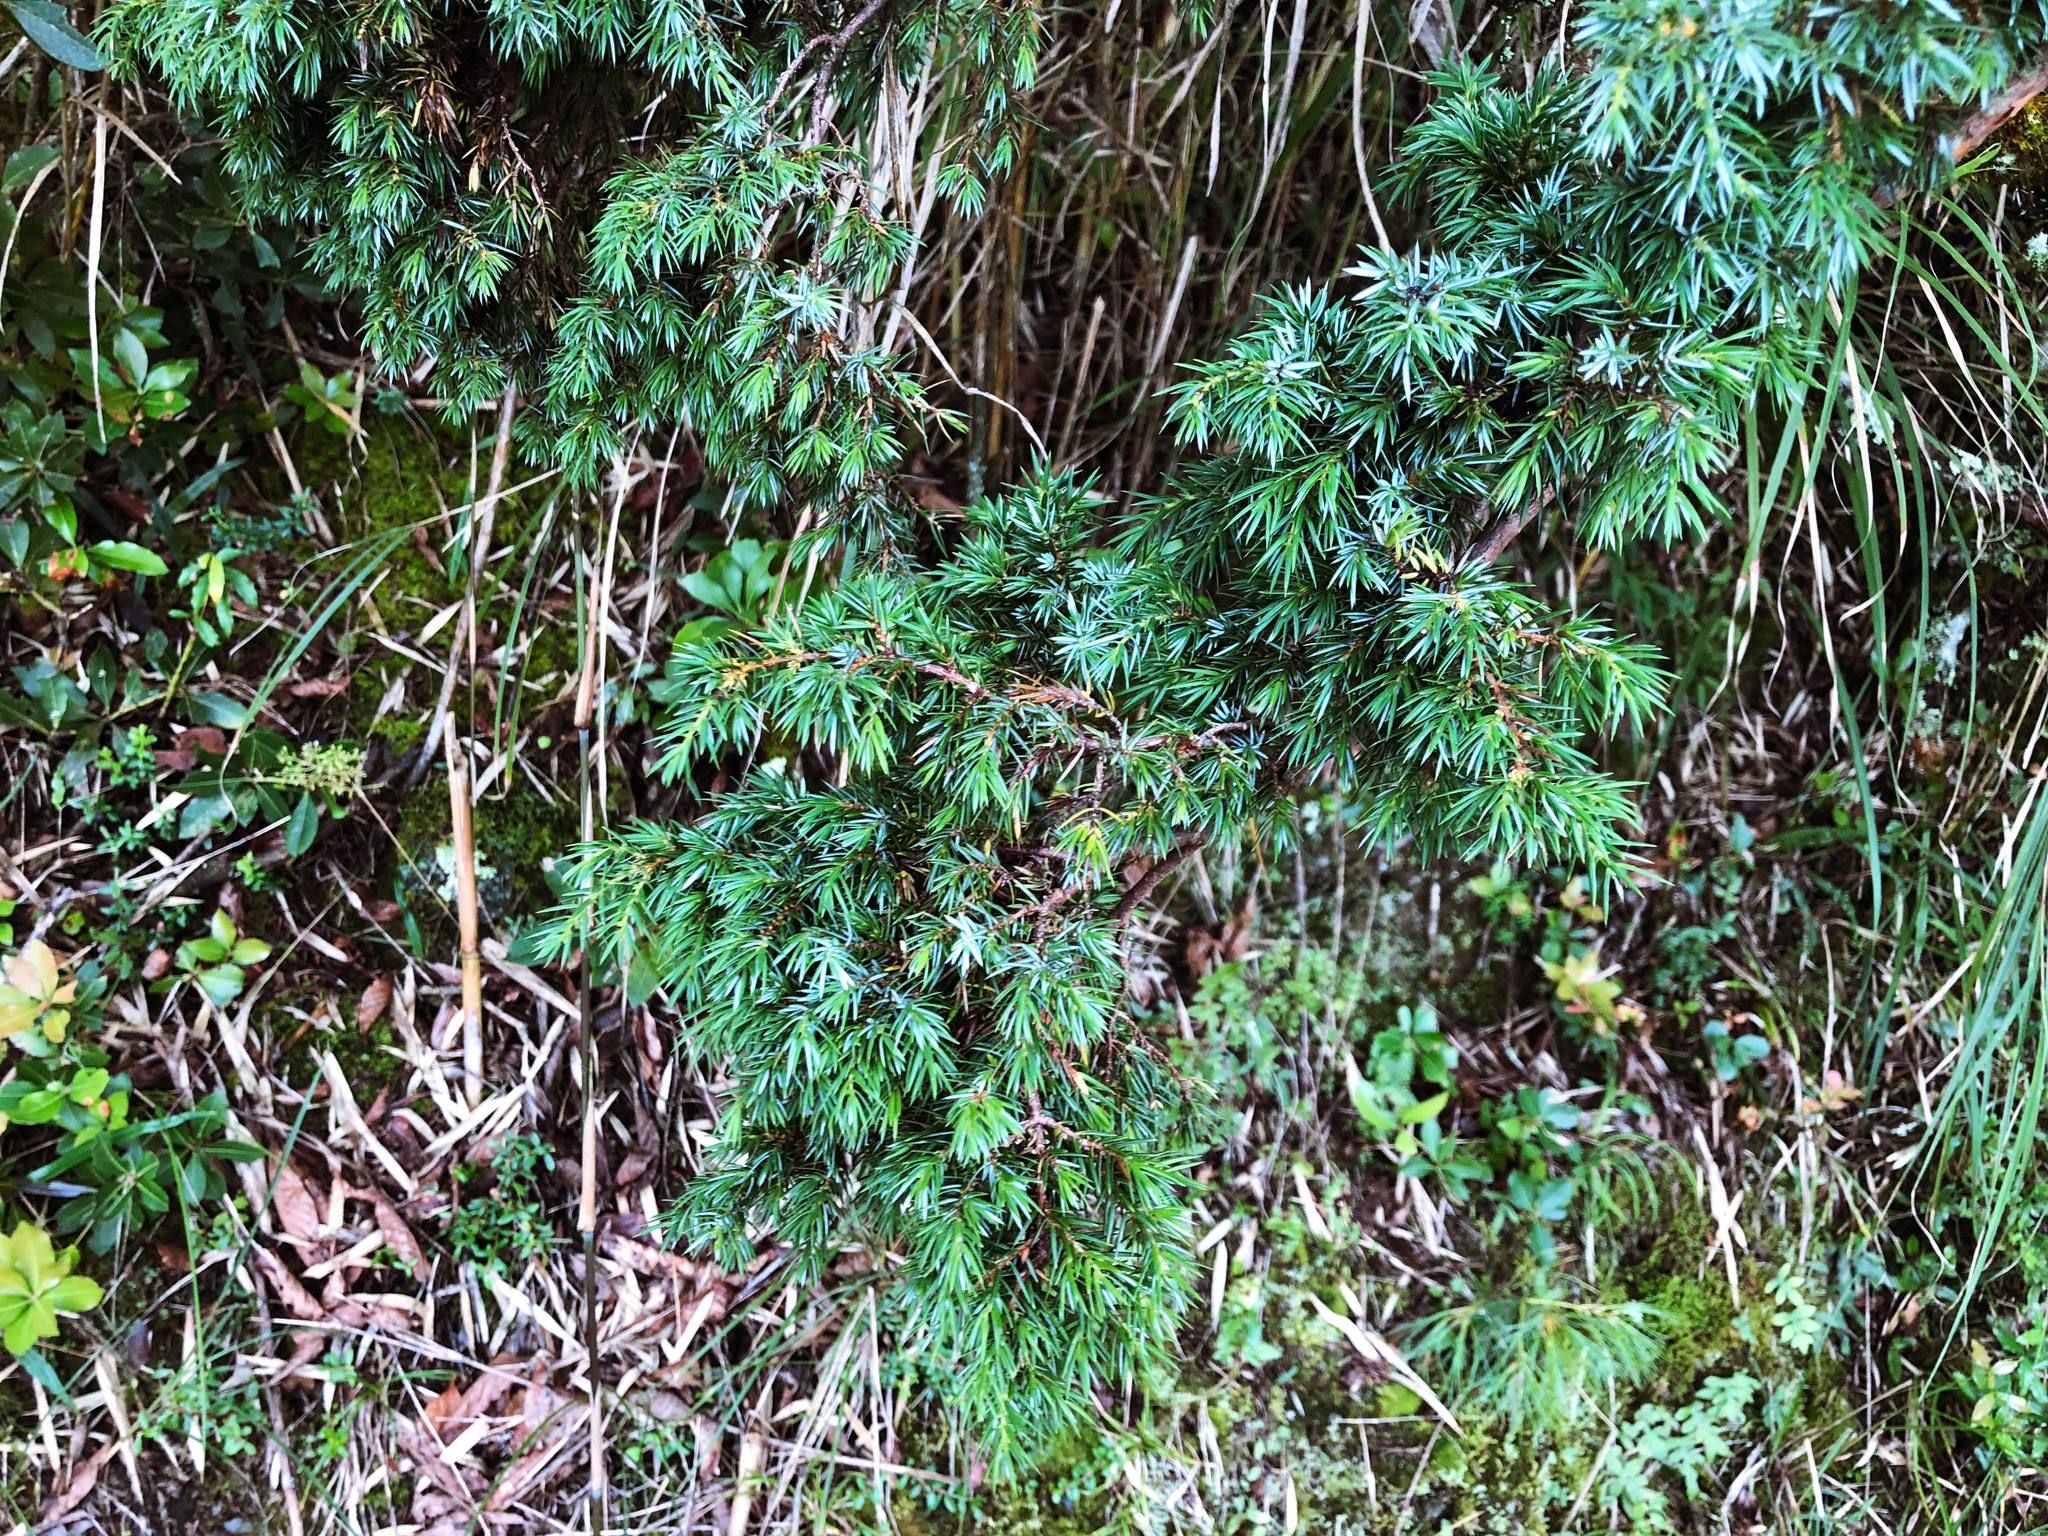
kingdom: Plantae
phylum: Tracheophyta
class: Pinopsida
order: Pinales
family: Cupressaceae
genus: Juniperus
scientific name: Juniperus formosana
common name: Formosan juniper
